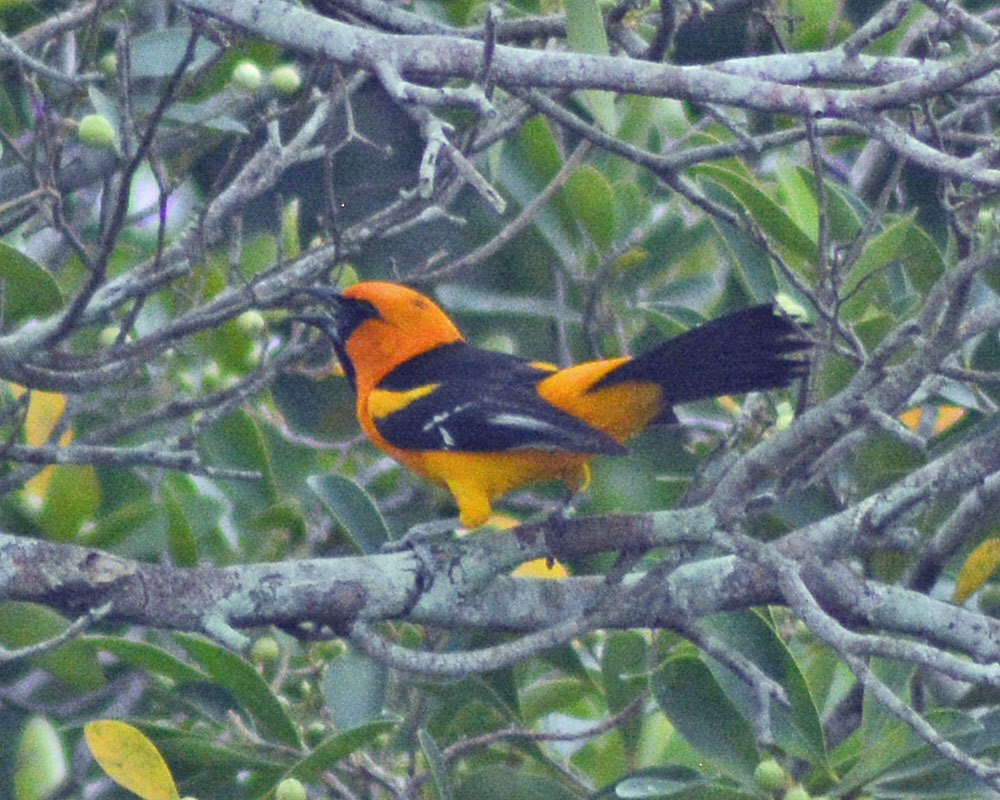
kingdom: Animalia
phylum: Chordata
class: Aves
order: Passeriformes
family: Icteridae
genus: Icterus
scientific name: Icterus gularis
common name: Altamira oriole
